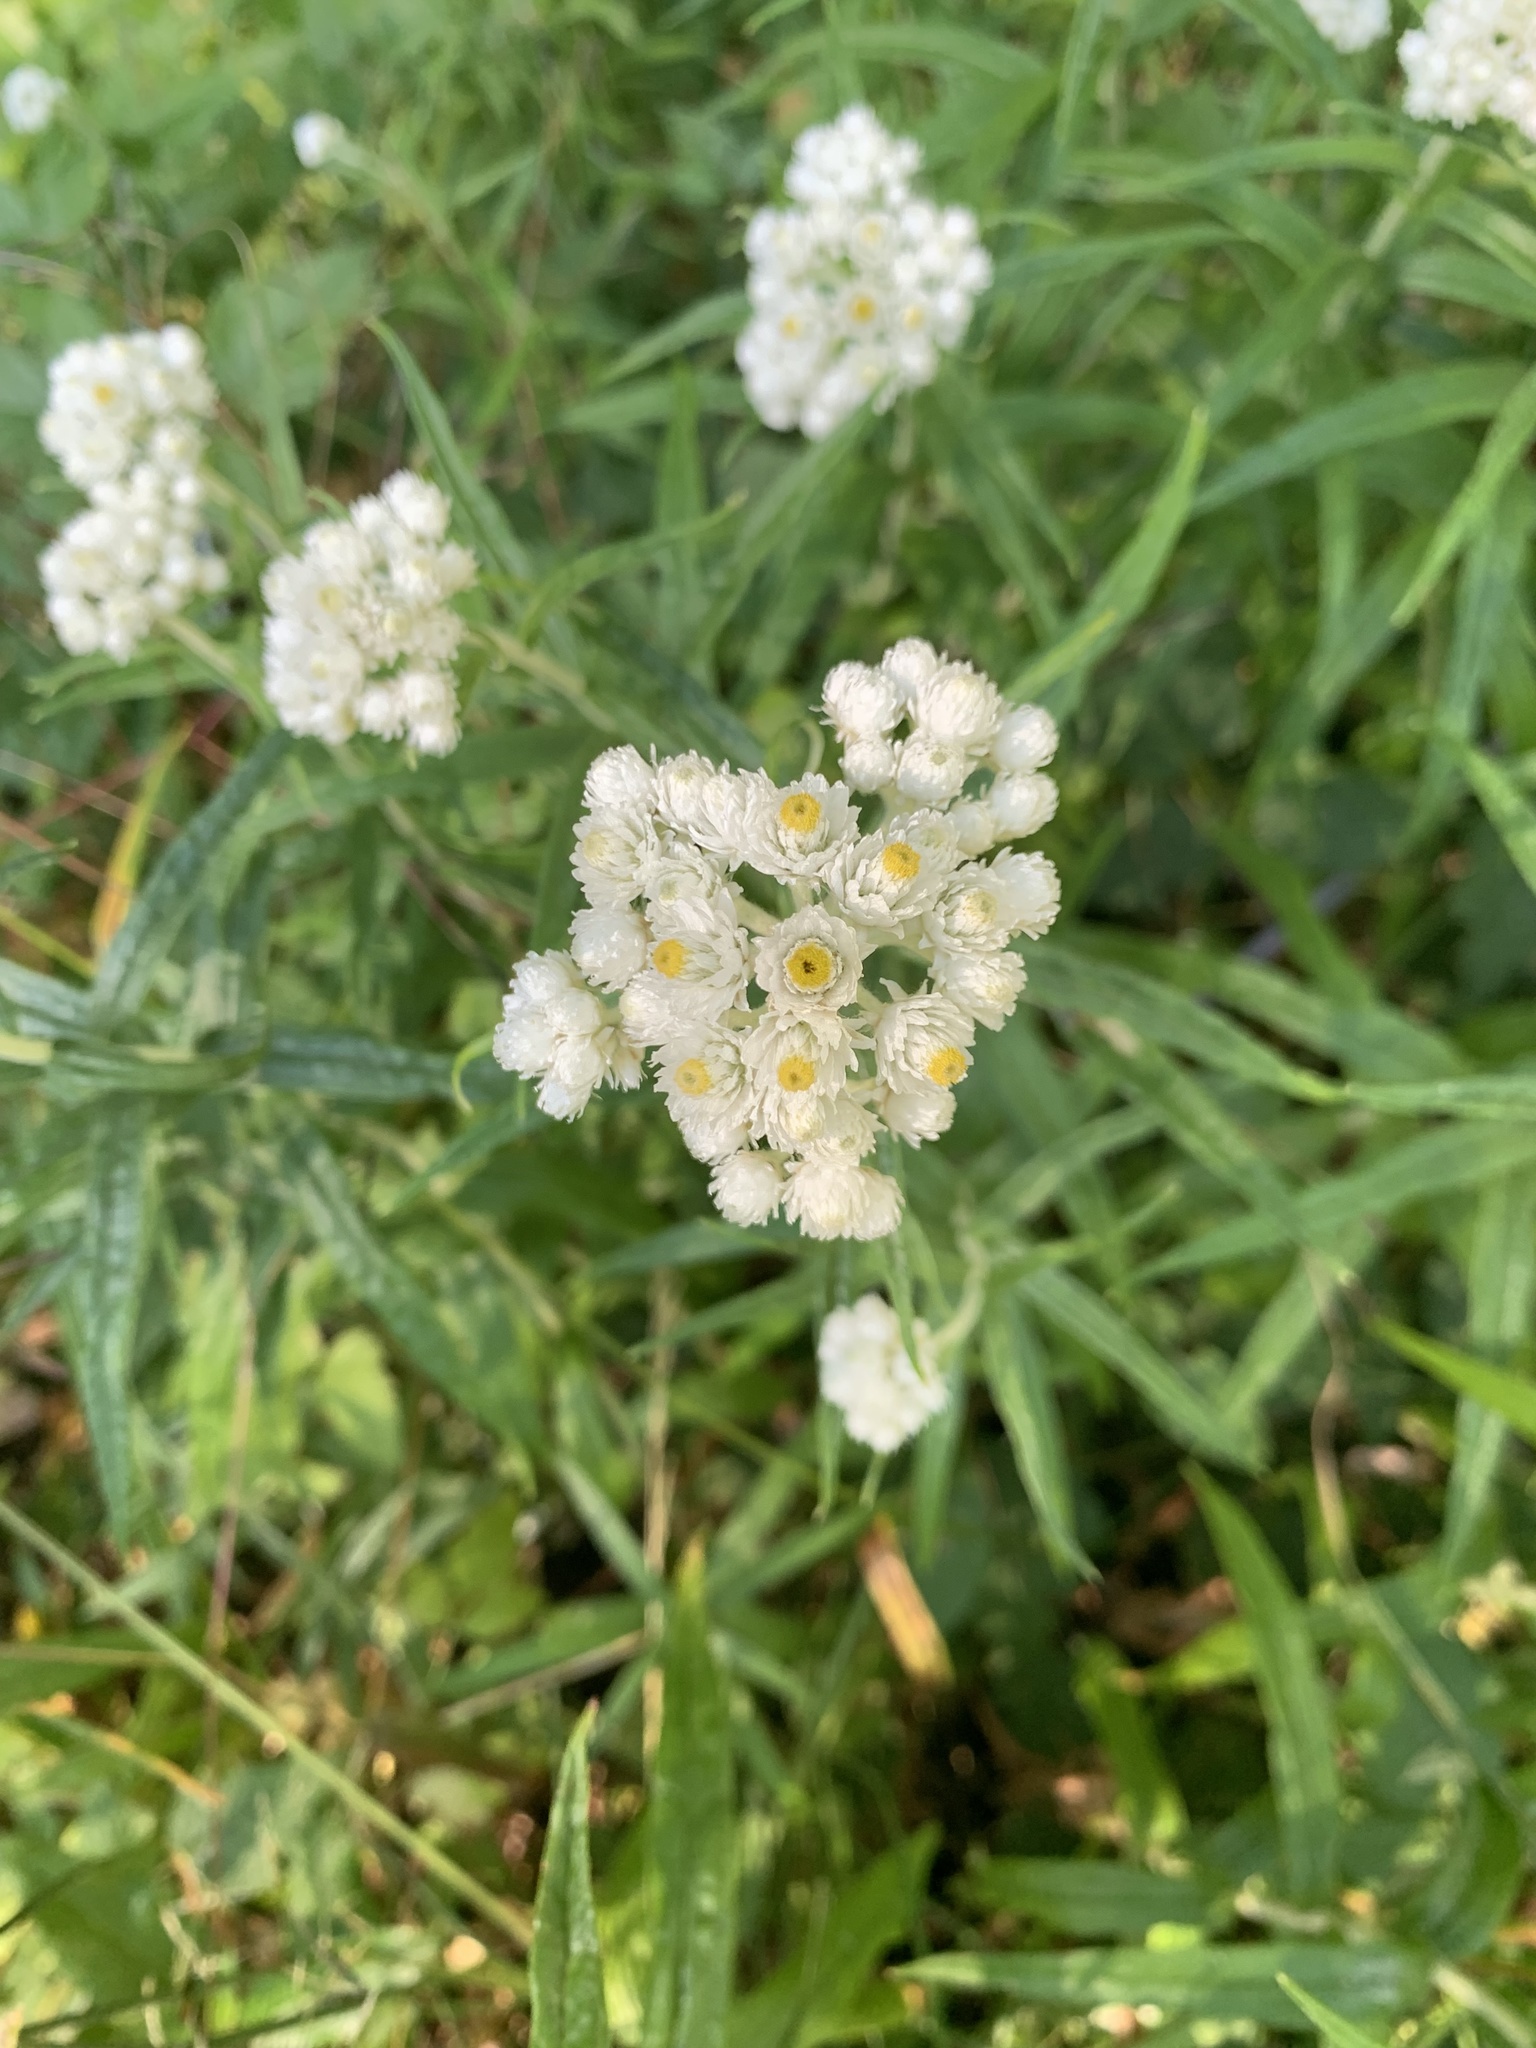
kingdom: Plantae
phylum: Tracheophyta
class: Magnoliopsida
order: Asterales
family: Asteraceae
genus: Anaphalis
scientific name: Anaphalis margaritacea
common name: Pearly everlasting
